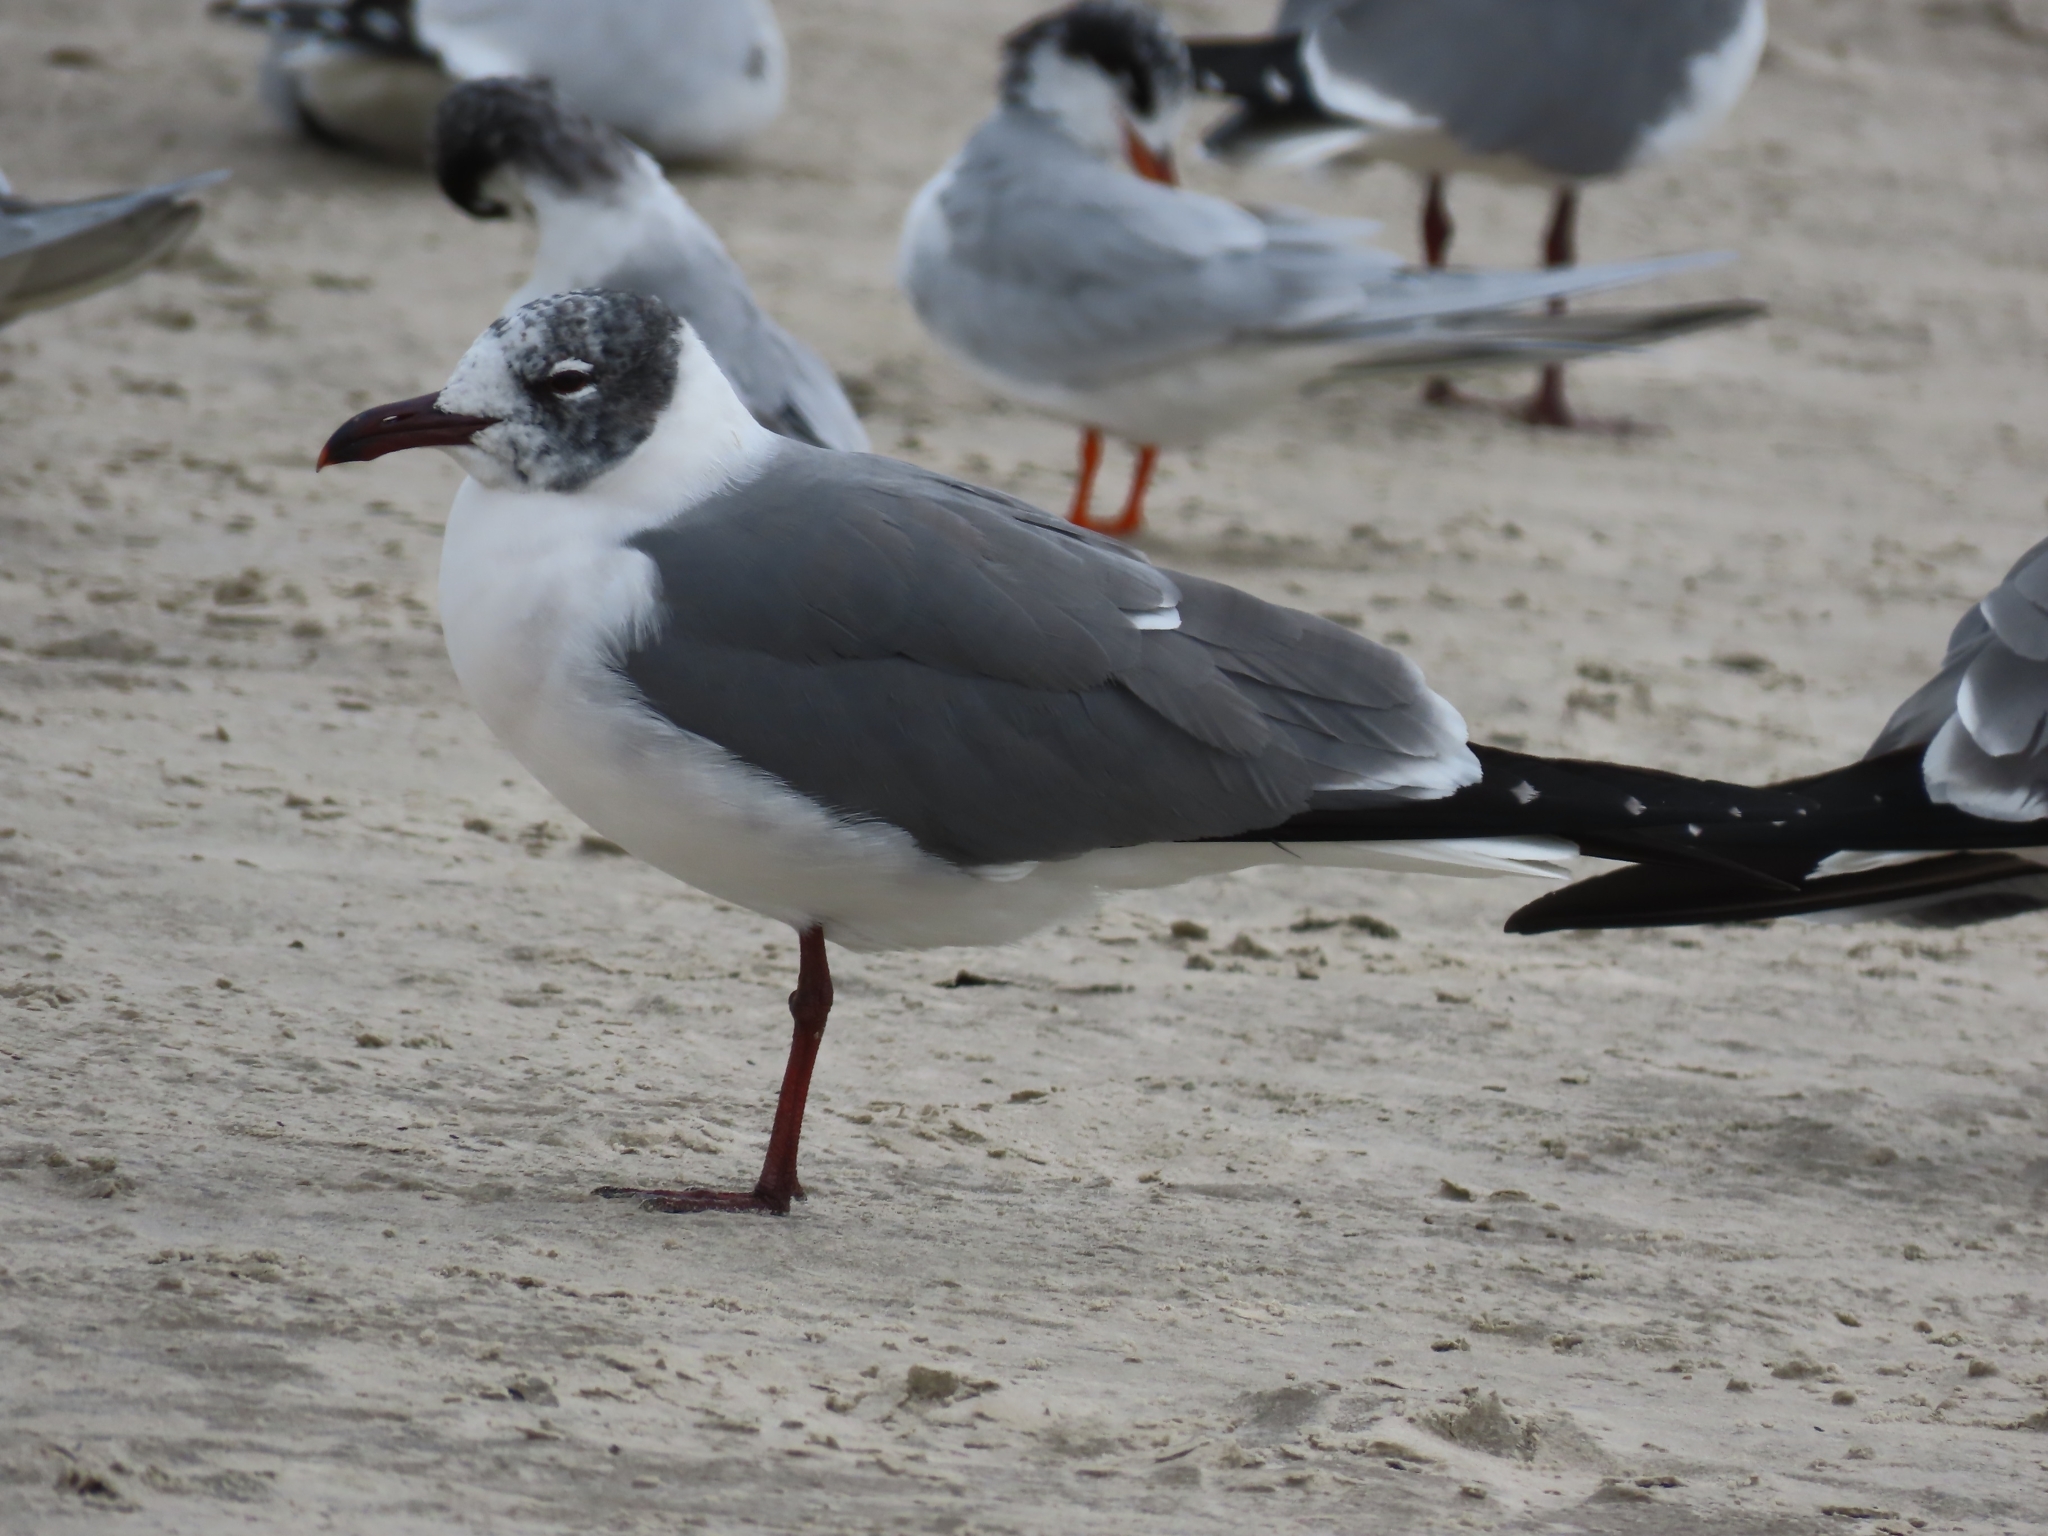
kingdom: Animalia
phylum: Chordata
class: Aves
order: Charadriiformes
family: Laridae
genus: Leucophaeus
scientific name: Leucophaeus atricilla
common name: Laughing gull
